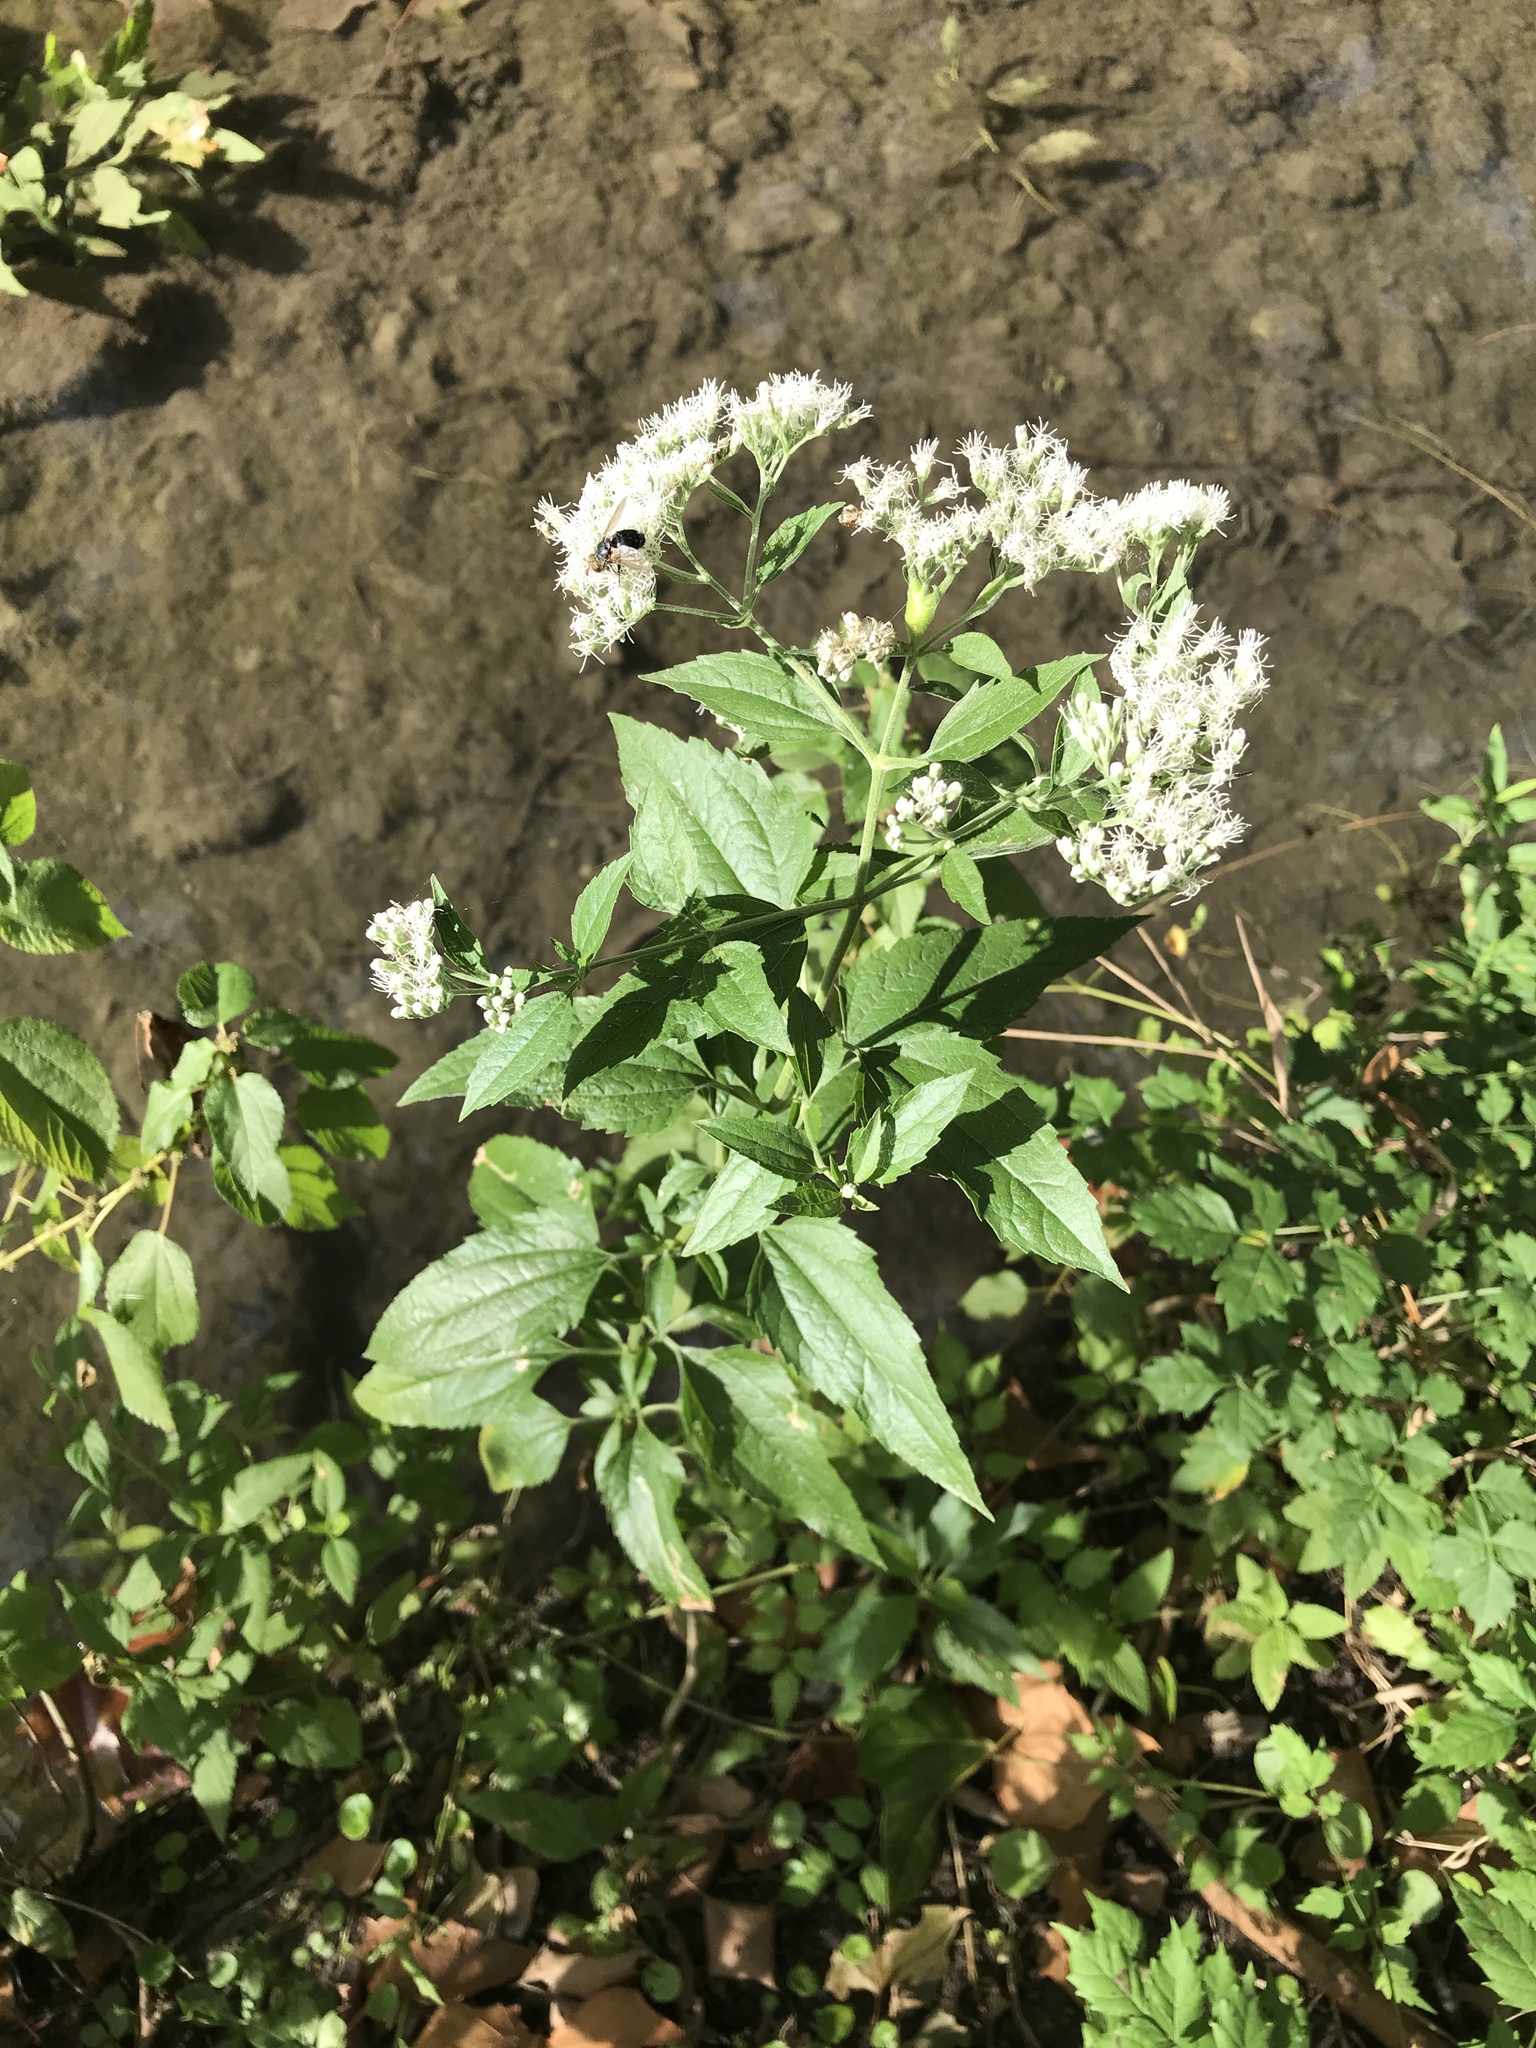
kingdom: Plantae
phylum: Tracheophyta
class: Magnoliopsida
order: Asterales
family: Asteraceae
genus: Eupatorium
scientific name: Eupatorium serotinum
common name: Late boneset
